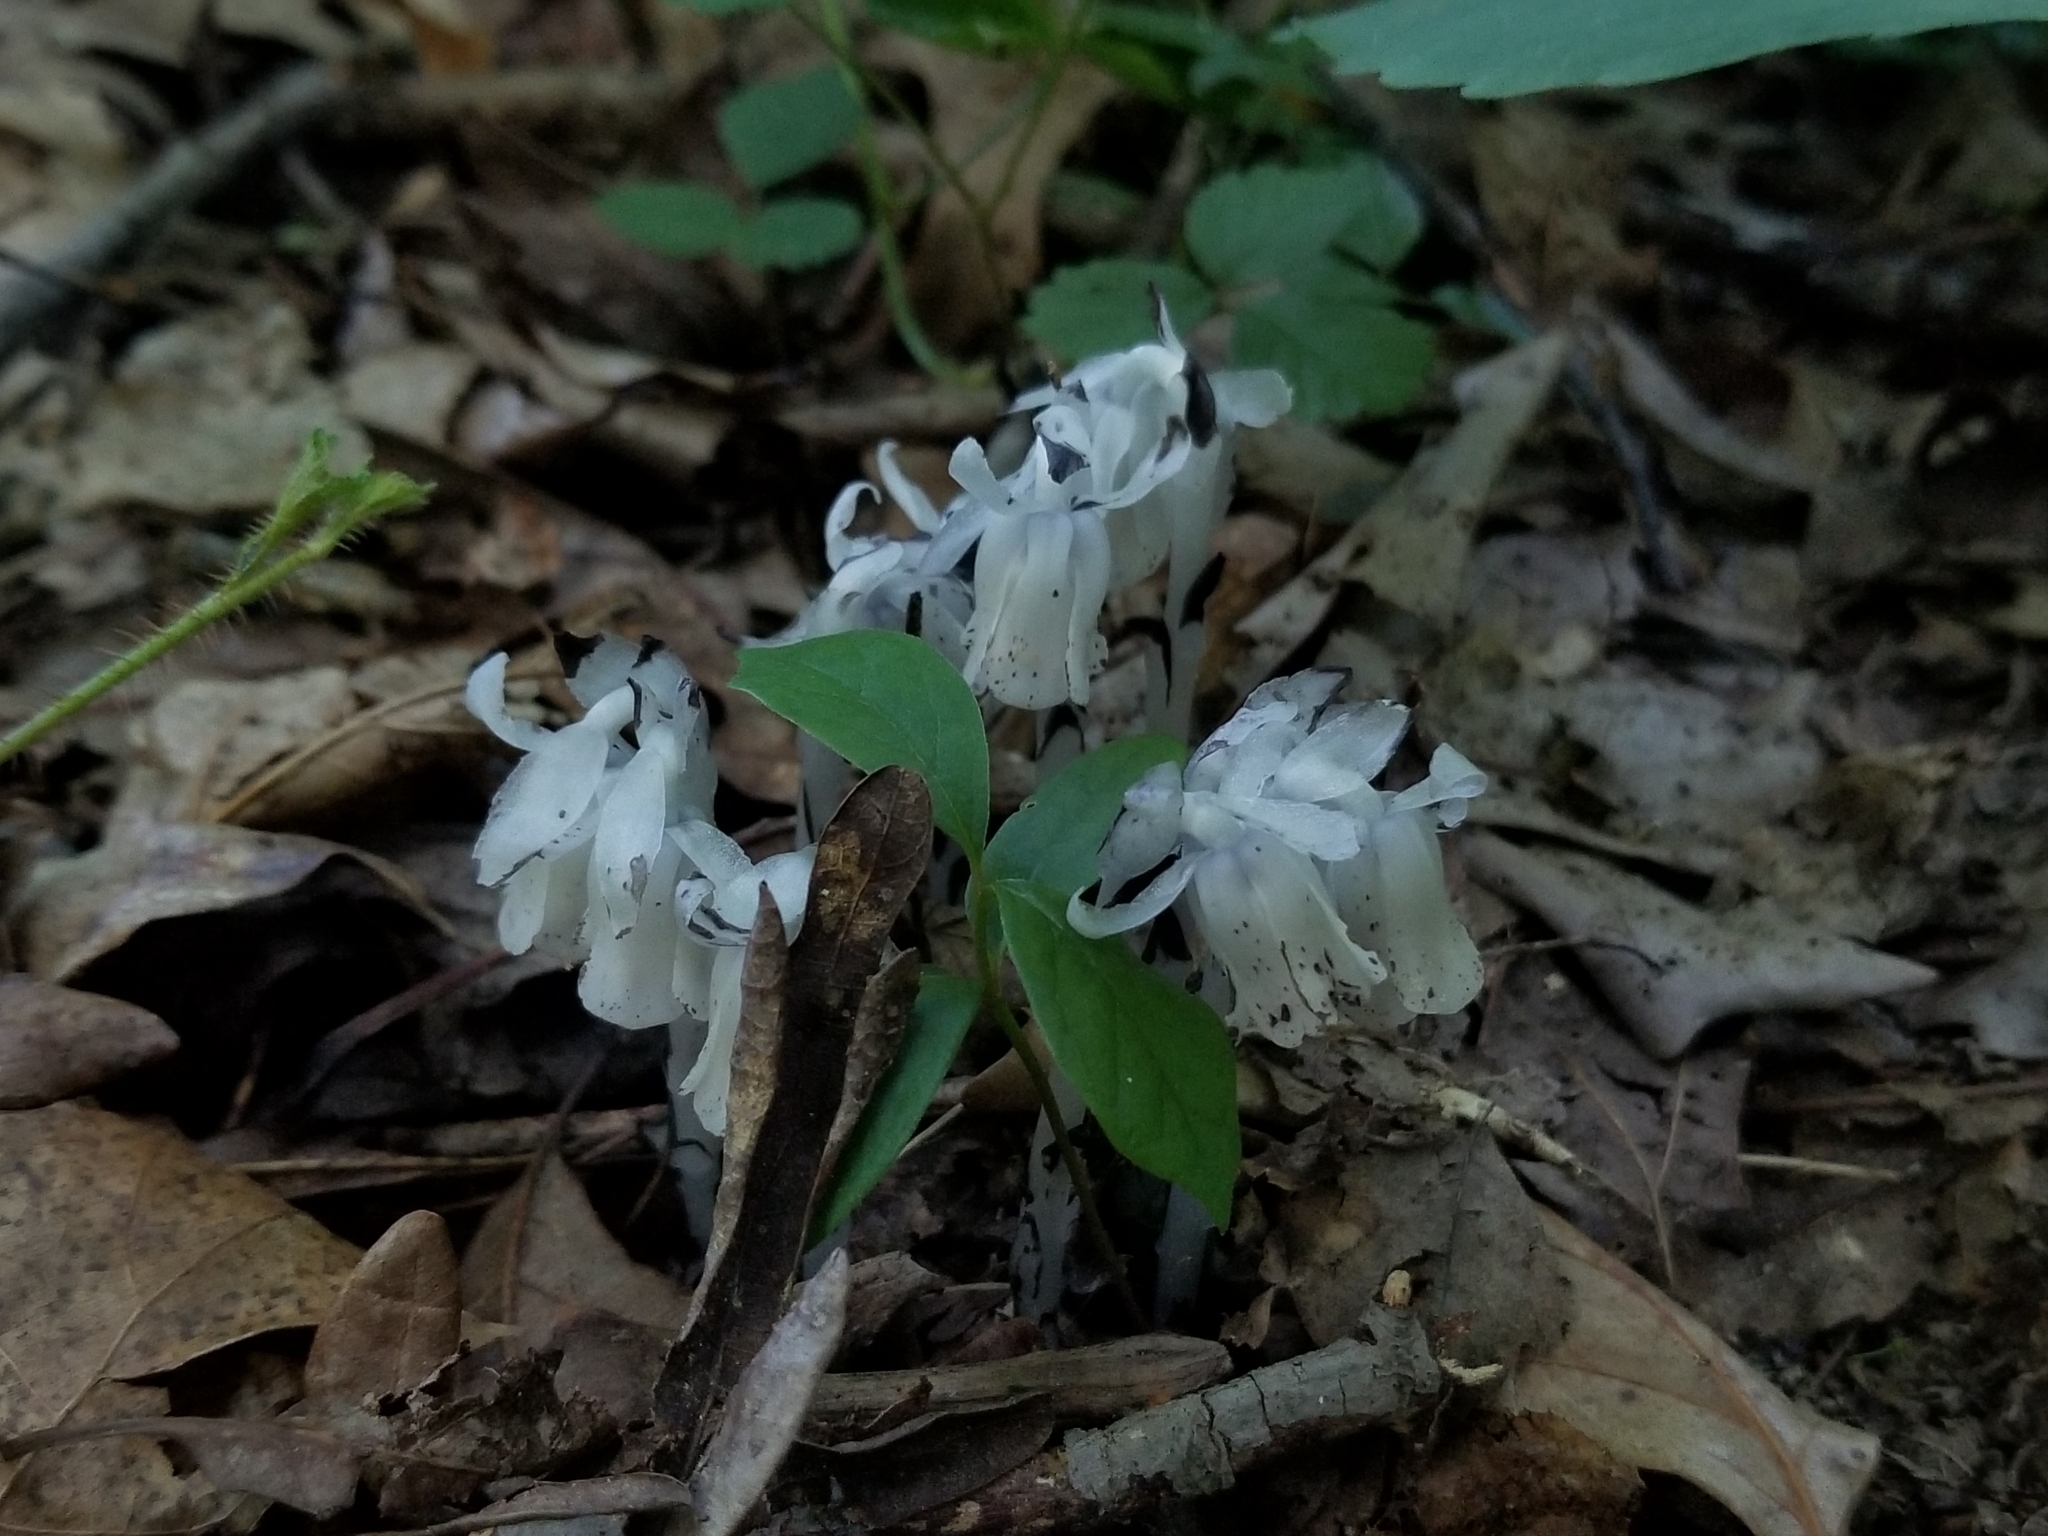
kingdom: Plantae
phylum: Tracheophyta
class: Magnoliopsida
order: Ericales
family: Ericaceae
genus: Monotropa
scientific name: Monotropa uniflora
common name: Convulsion root
